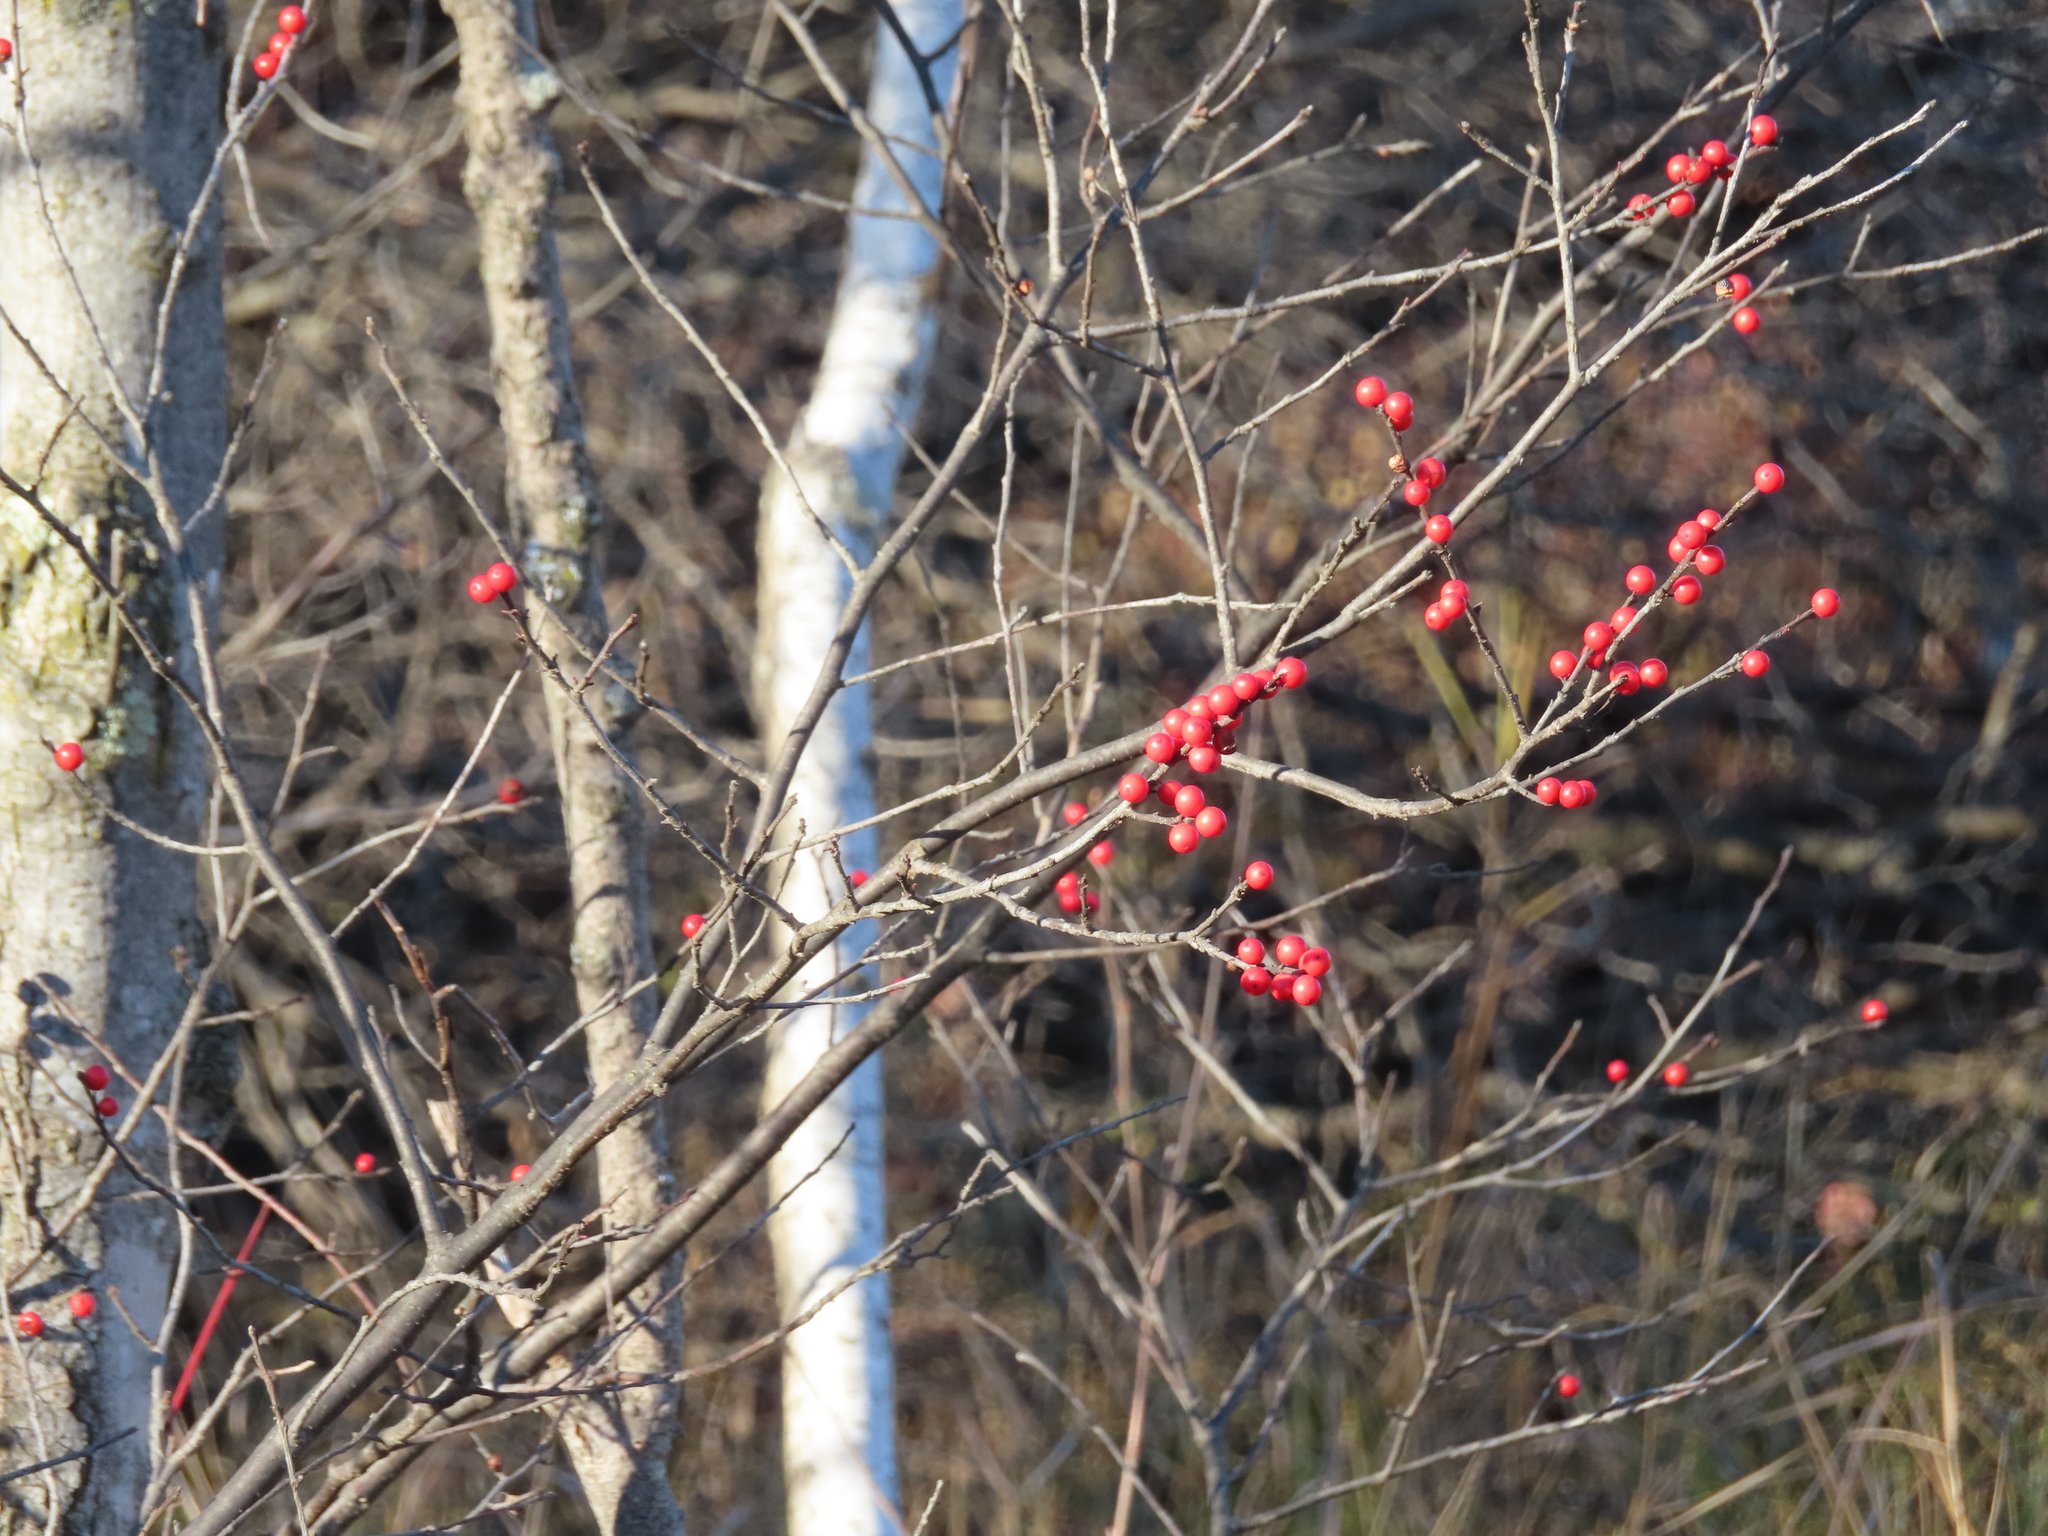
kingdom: Plantae
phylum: Tracheophyta
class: Magnoliopsida
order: Aquifoliales
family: Aquifoliaceae
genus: Ilex
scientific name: Ilex verticillata
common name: Virginia winterberry
